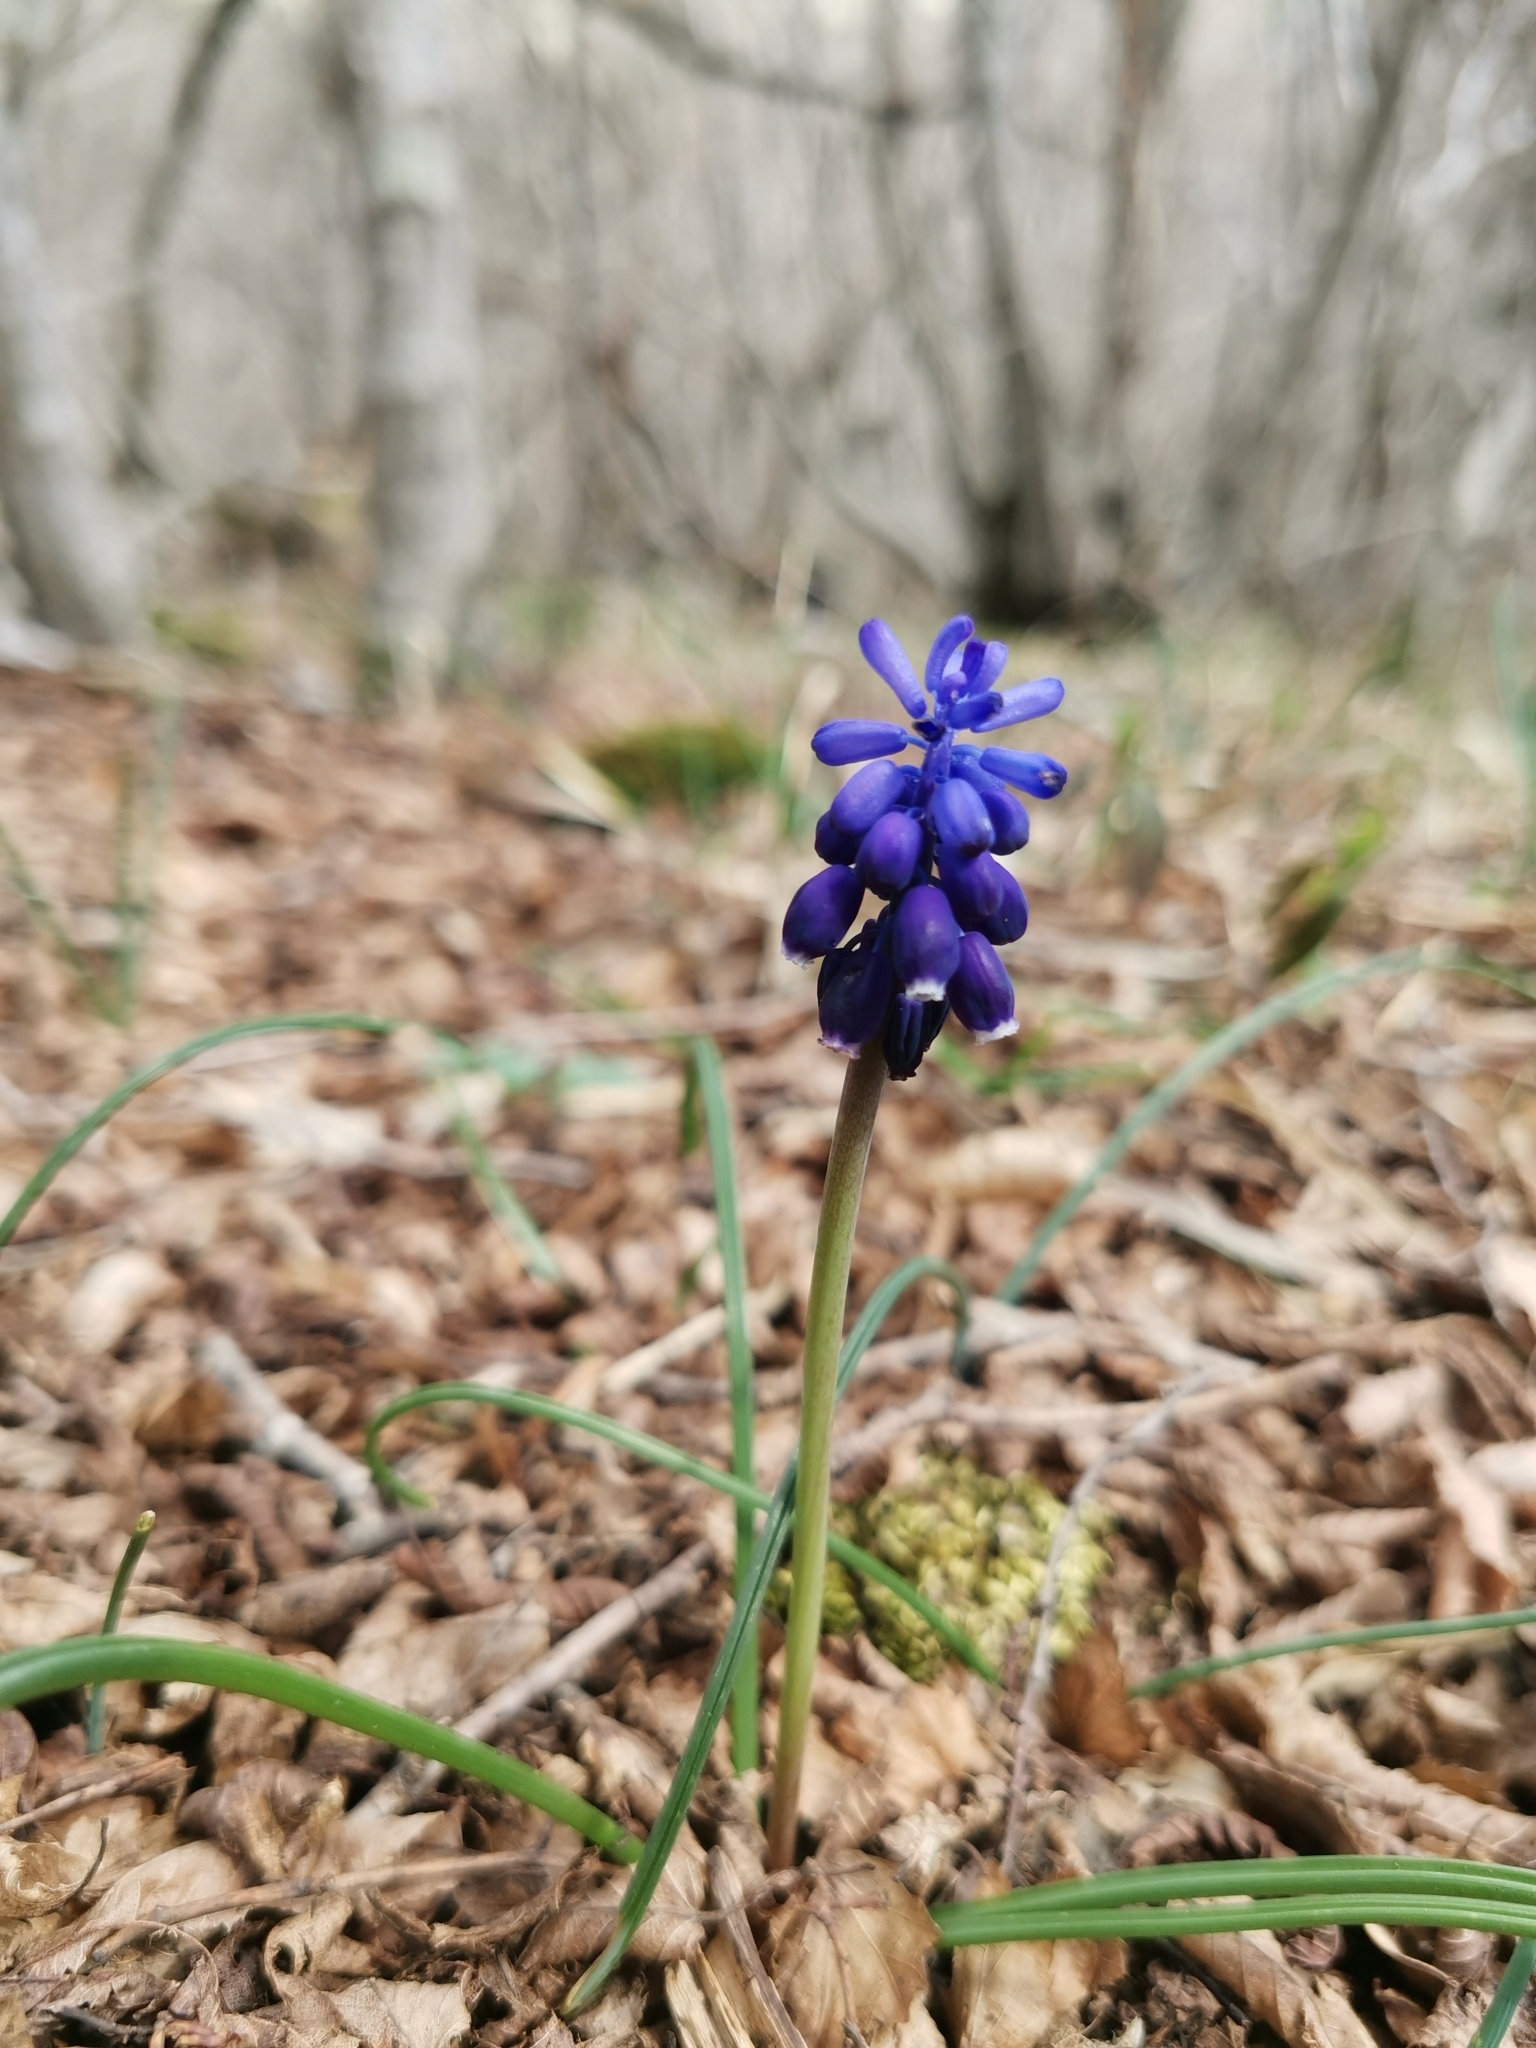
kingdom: Plantae
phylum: Tracheophyta
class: Liliopsida
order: Asparagales
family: Asparagaceae
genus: Muscari
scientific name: Muscari neglectum
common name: Grape-hyacinth
